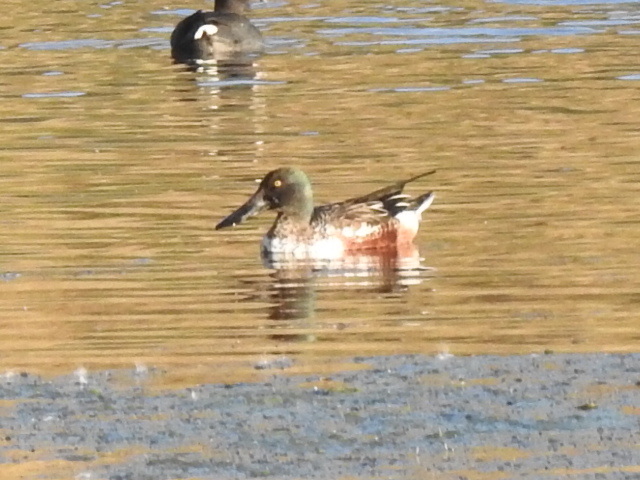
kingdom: Animalia
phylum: Chordata
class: Aves
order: Anseriformes
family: Anatidae
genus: Spatula
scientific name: Spatula clypeata
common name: Northern shoveler
